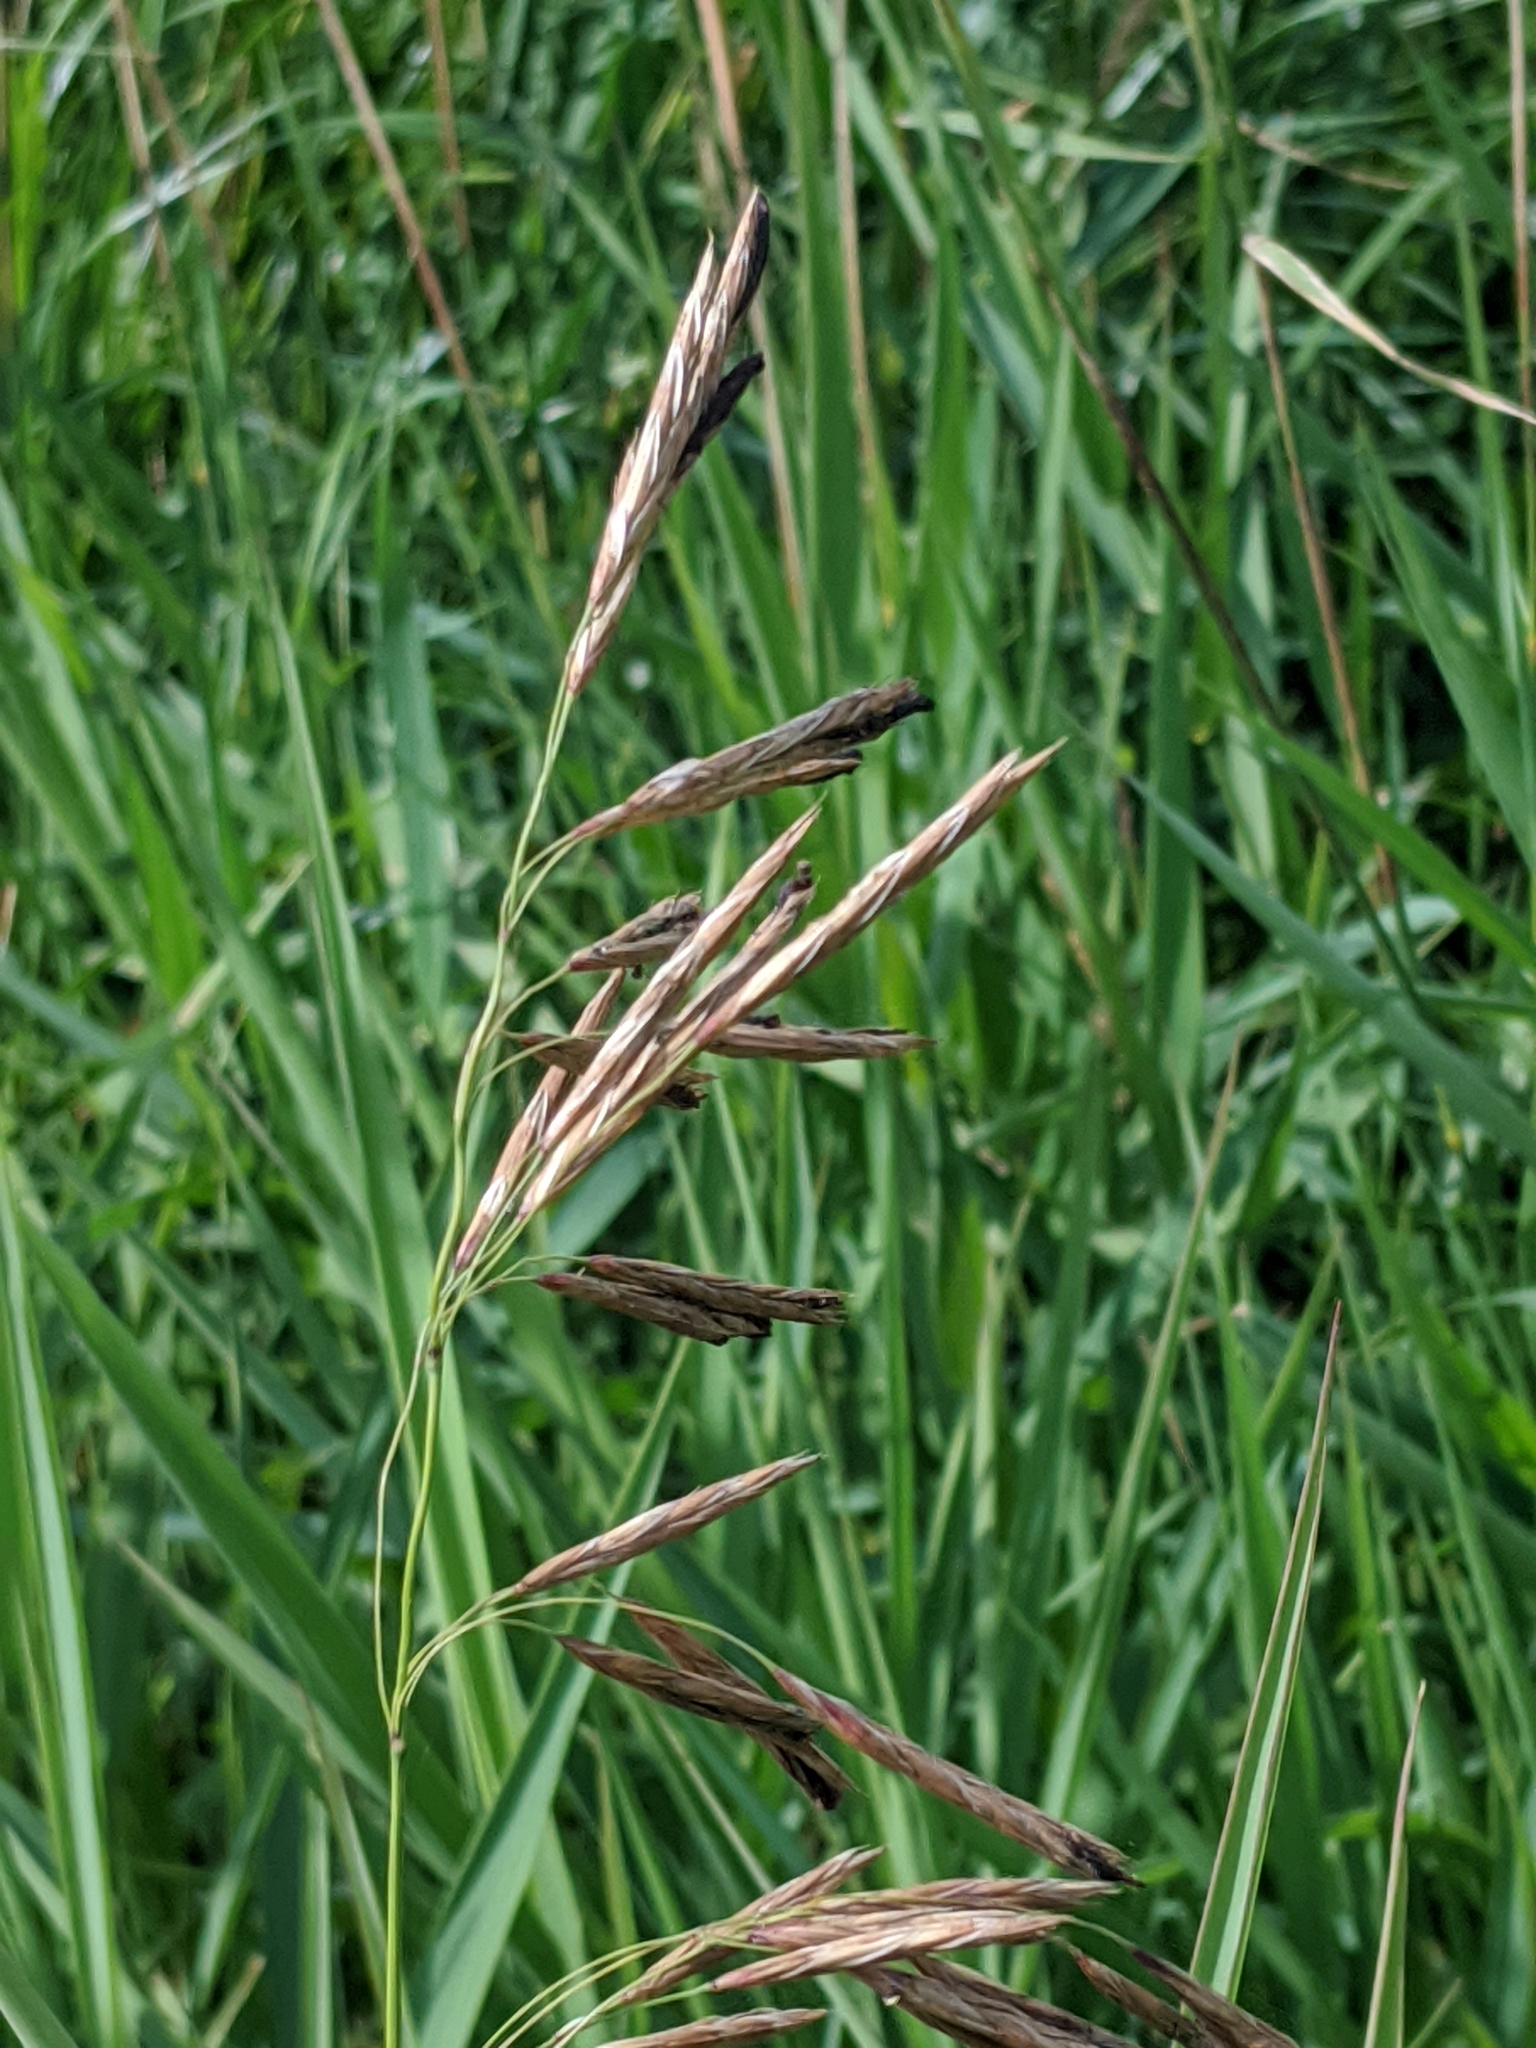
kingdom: Plantae
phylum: Tracheophyta
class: Liliopsida
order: Poales
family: Poaceae
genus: Bromus
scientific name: Bromus inermis
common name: Smooth brome
